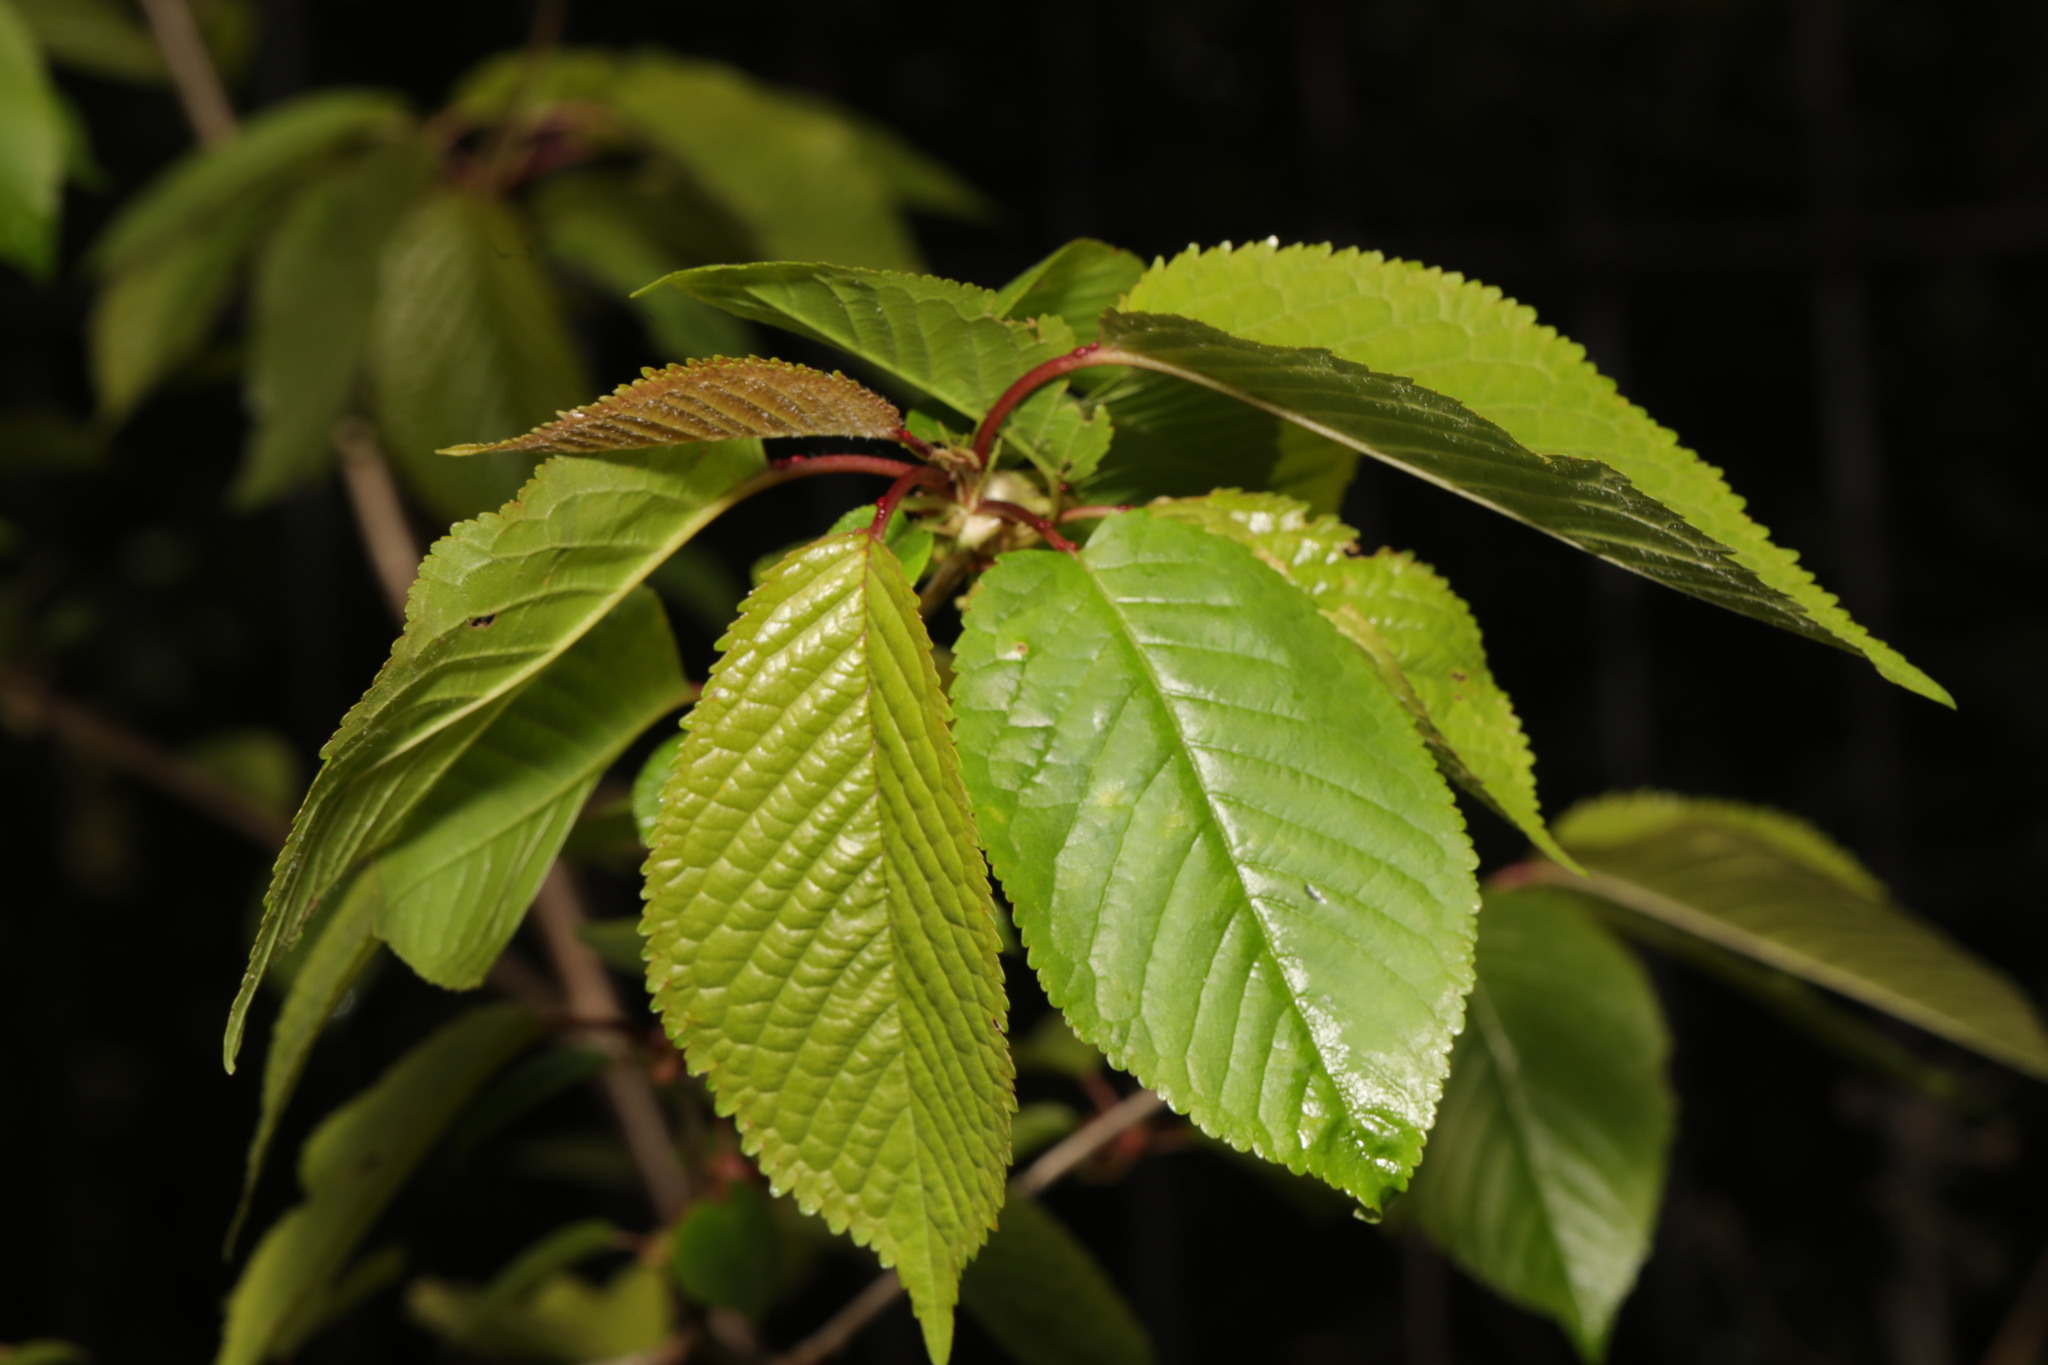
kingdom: Plantae
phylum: Tracheophyta
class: Magnoliopsida
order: Rosales
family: Rosaceae
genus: Prunus
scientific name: Prunus avium
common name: Sweet cherry
